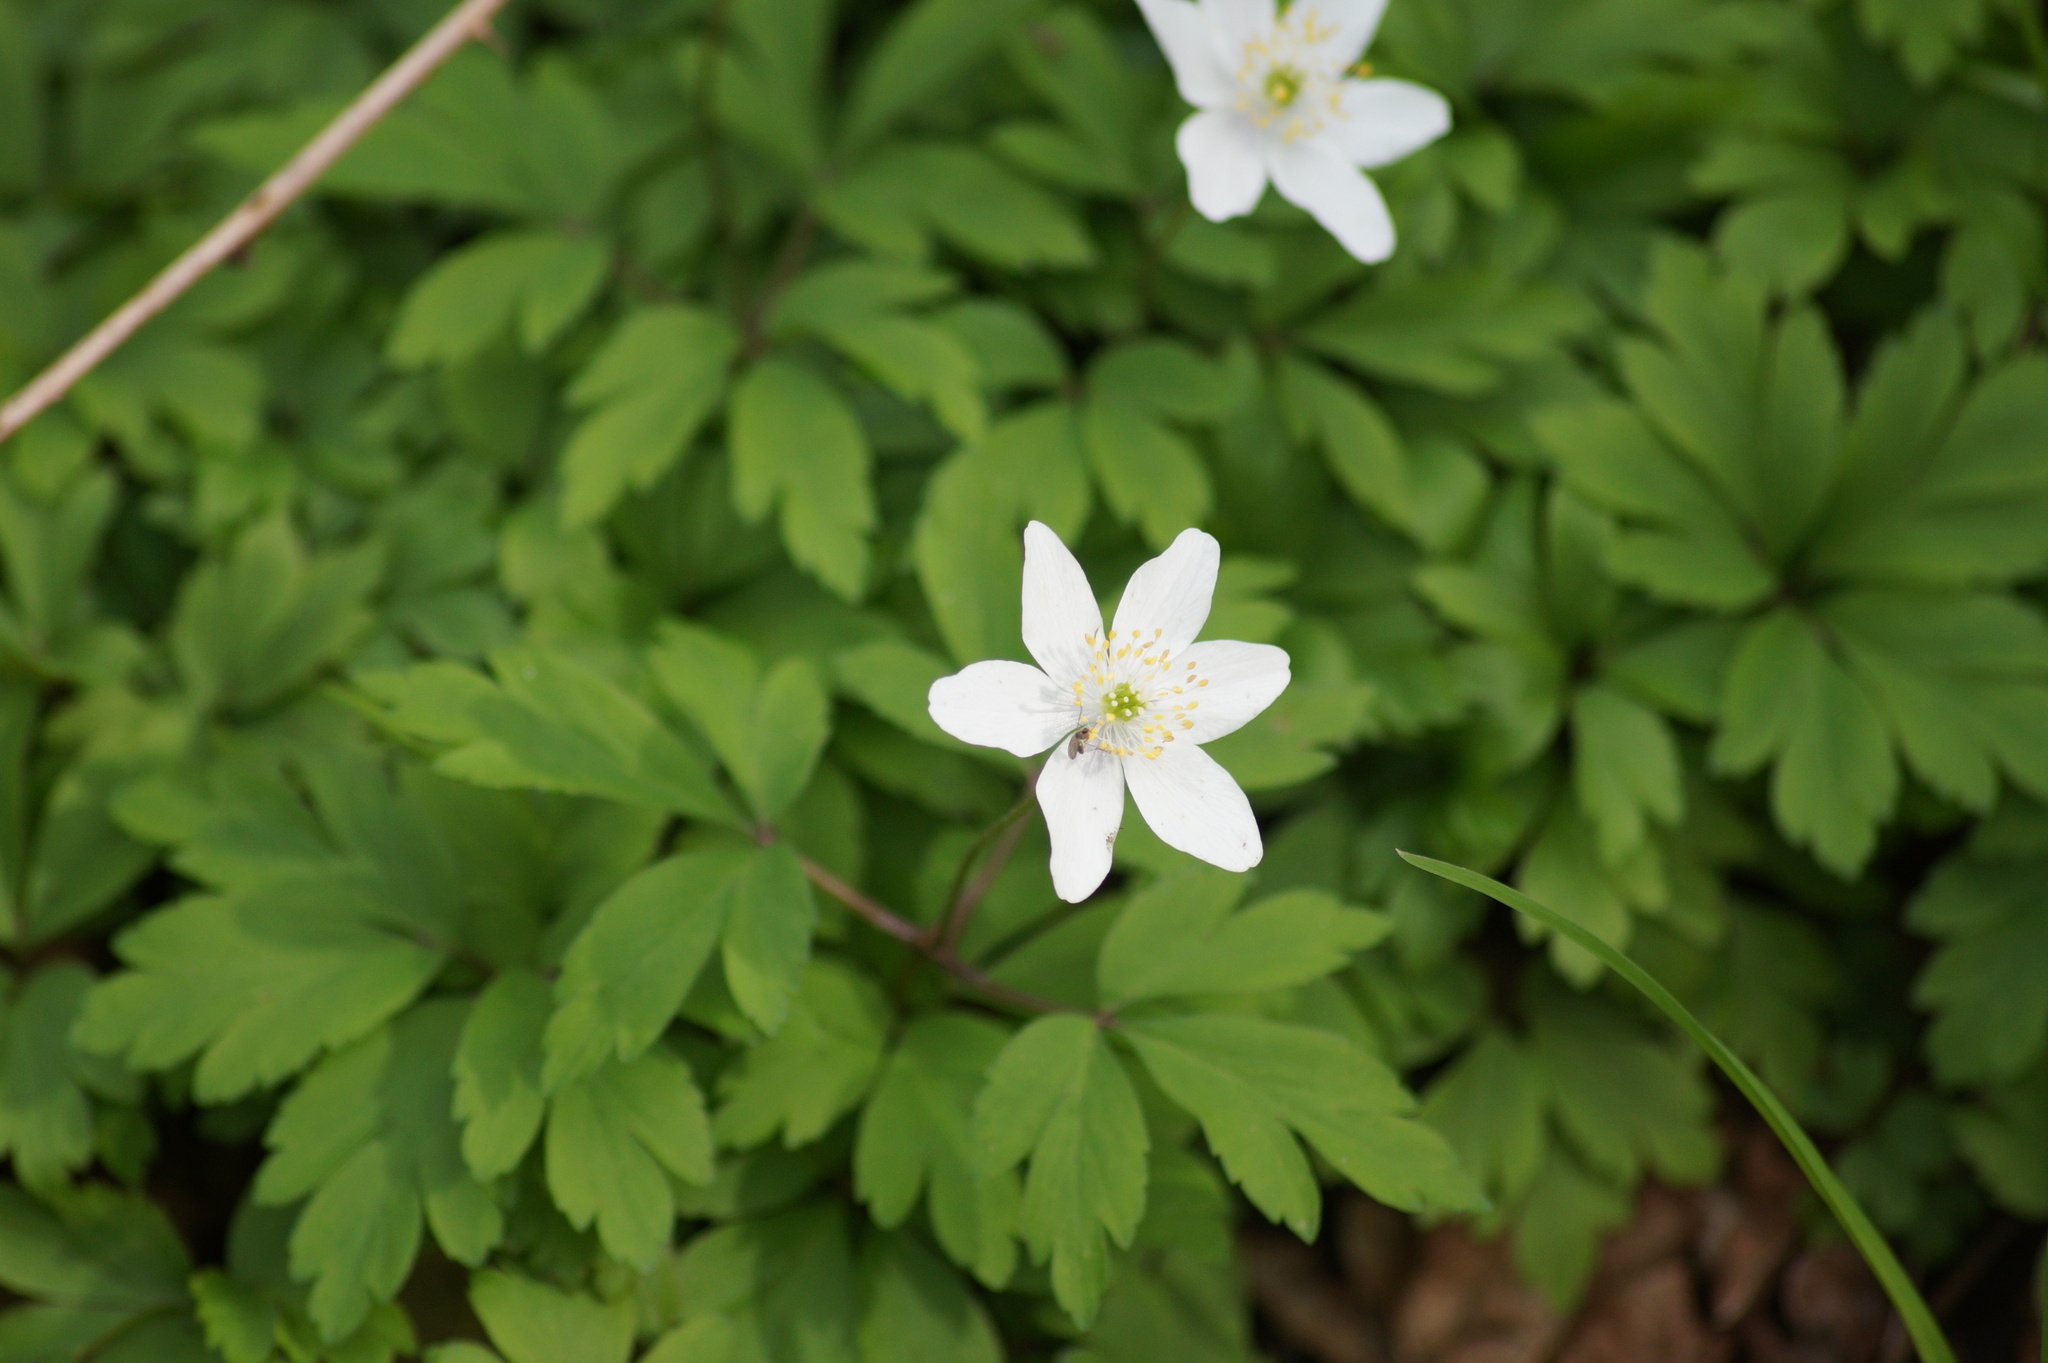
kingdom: Plantae
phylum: Tracheophyta
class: Magnoliopsida
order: Ranunculales
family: Ranunculaceae
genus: Anemone
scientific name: Anemone nemorosa
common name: Wood anemone
